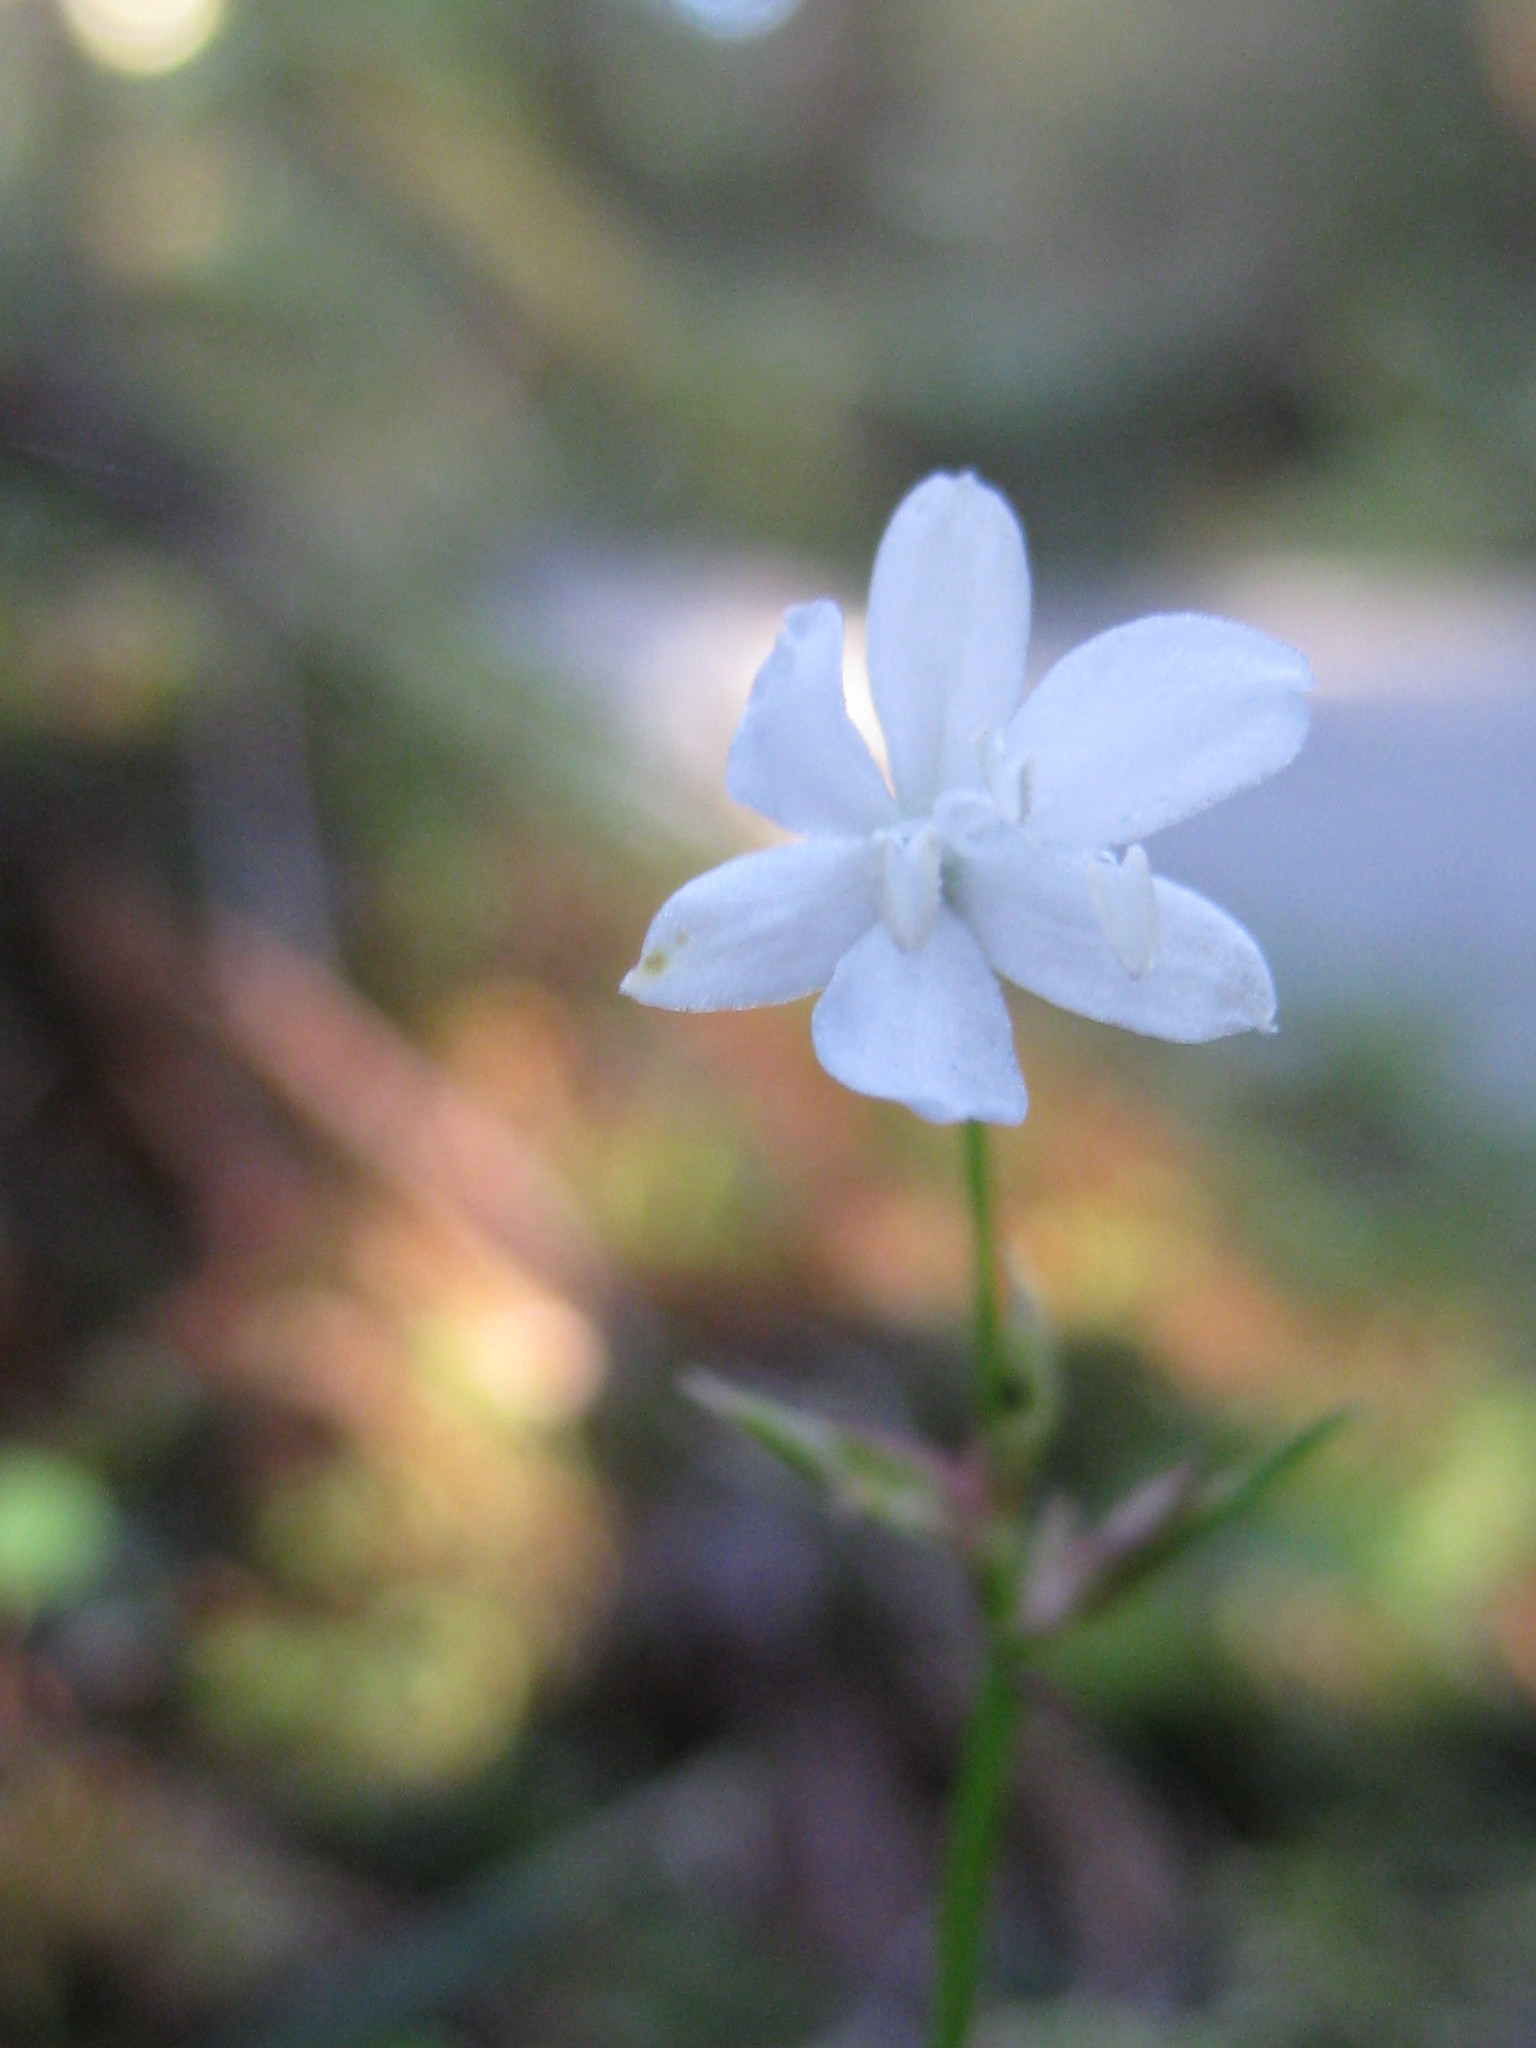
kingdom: Plantae
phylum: Tracheophyta
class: Magnoliopsida
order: Asterales
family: Campanulaceae
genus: Wahlenbergia
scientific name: Wahlenbergia albomarginata
